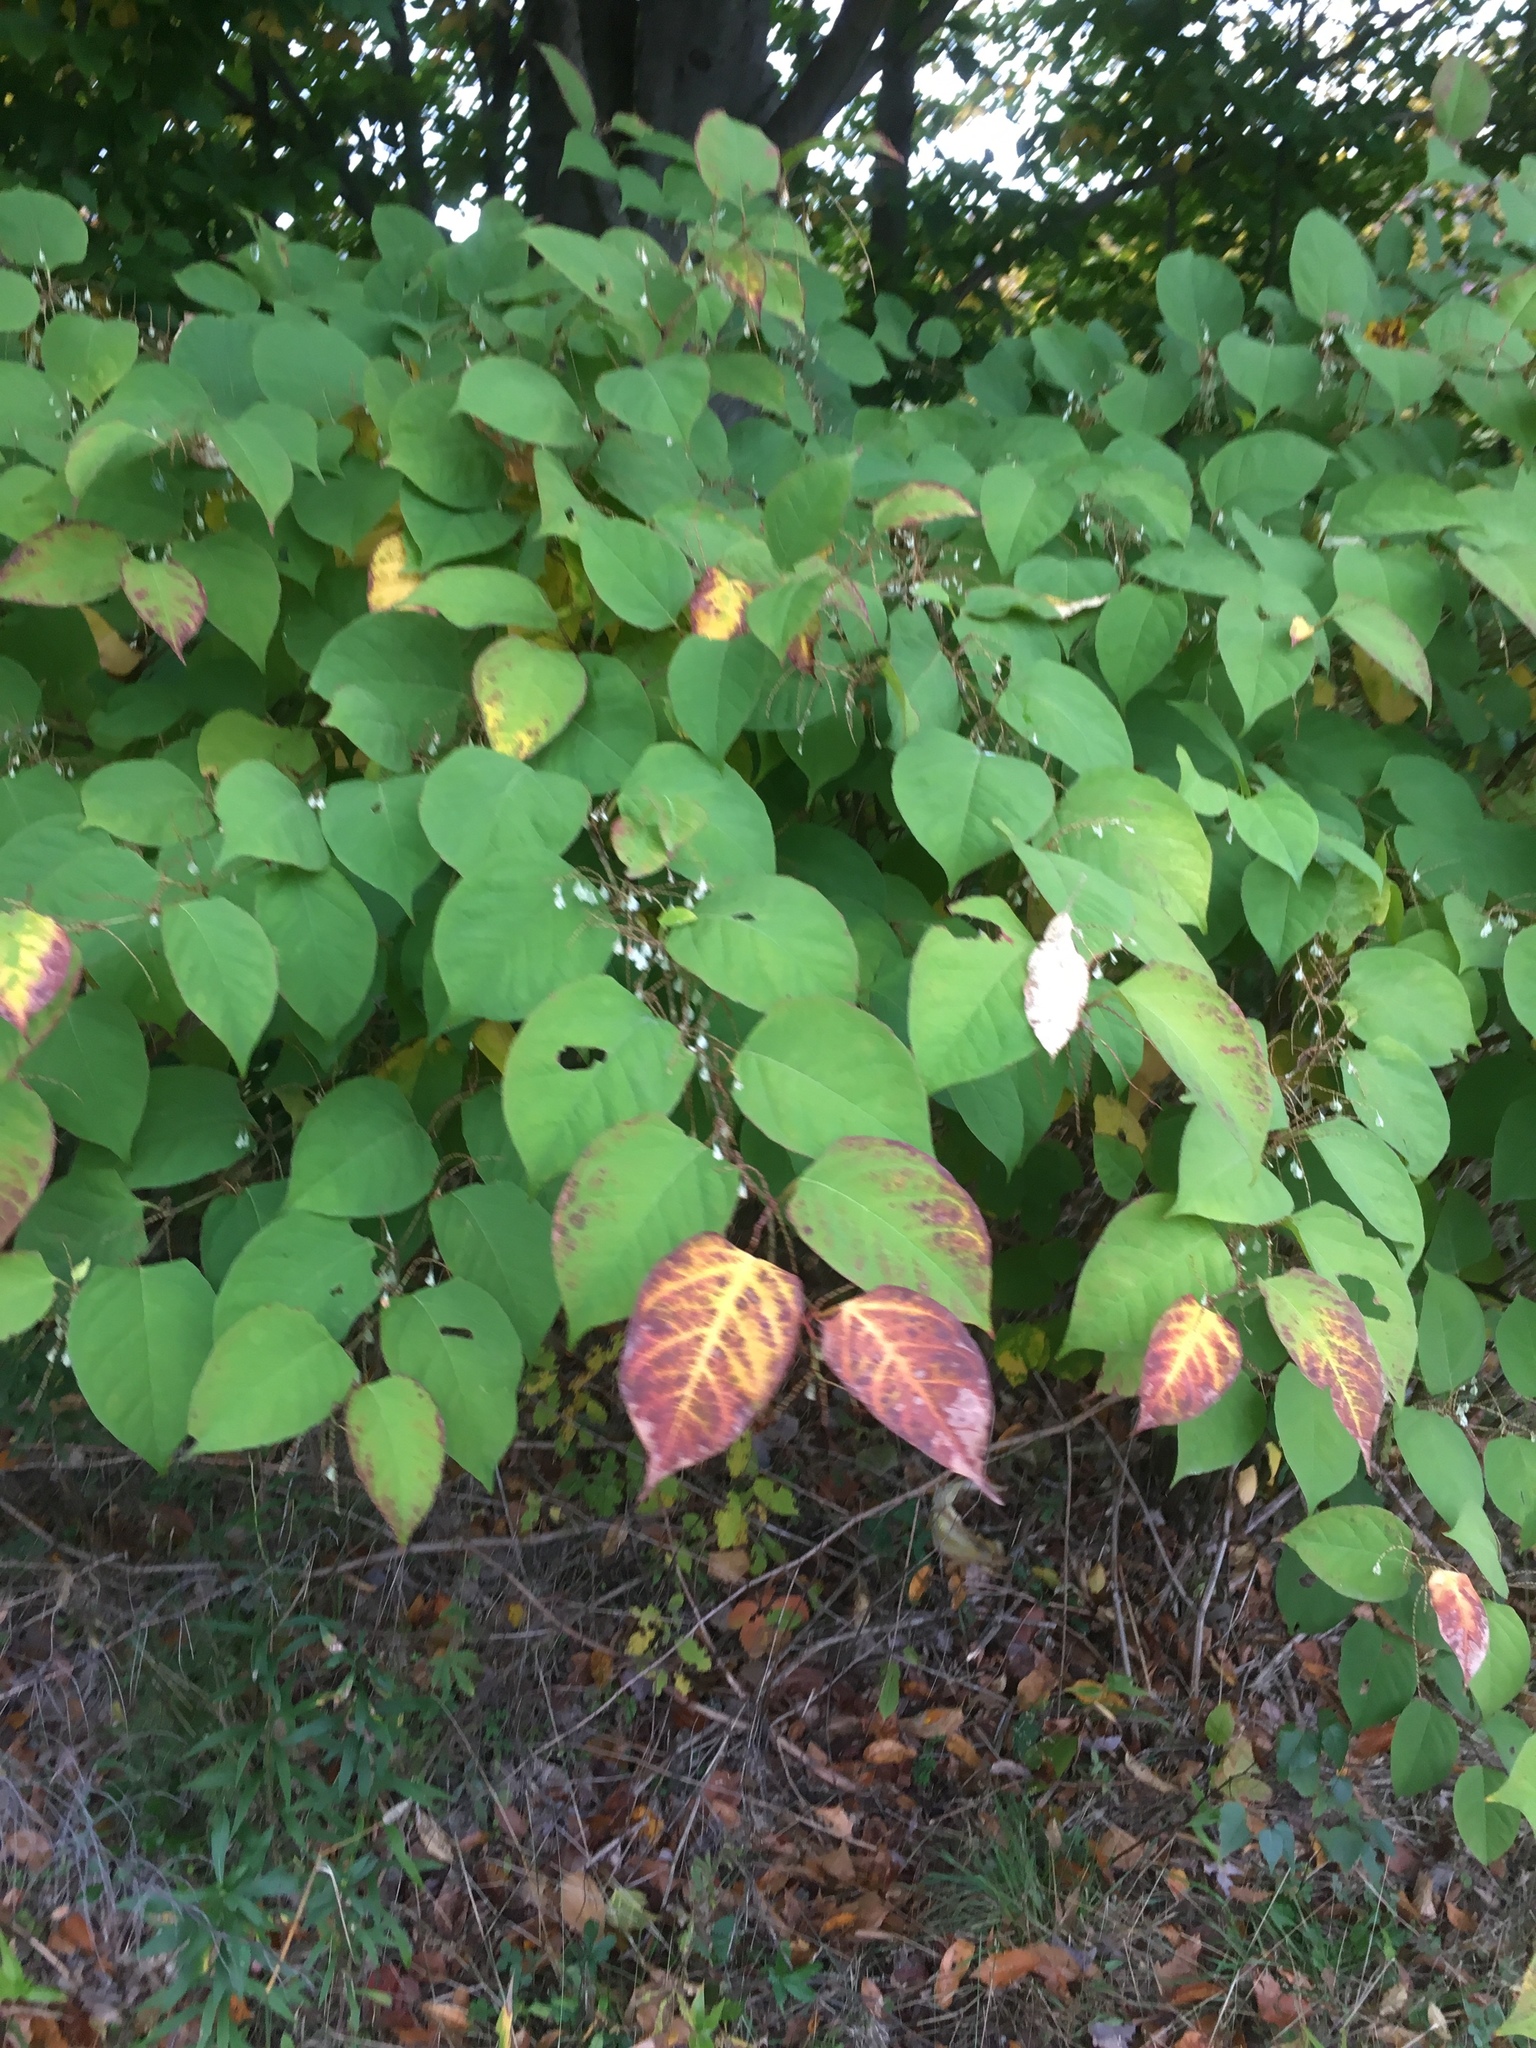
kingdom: Plantae
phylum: Tracheophyta
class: Magnoliopsida
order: Caryophyllales
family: Polygonaceae
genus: Reynoutria
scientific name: Reynoutria japonica
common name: Japanese knotweed
